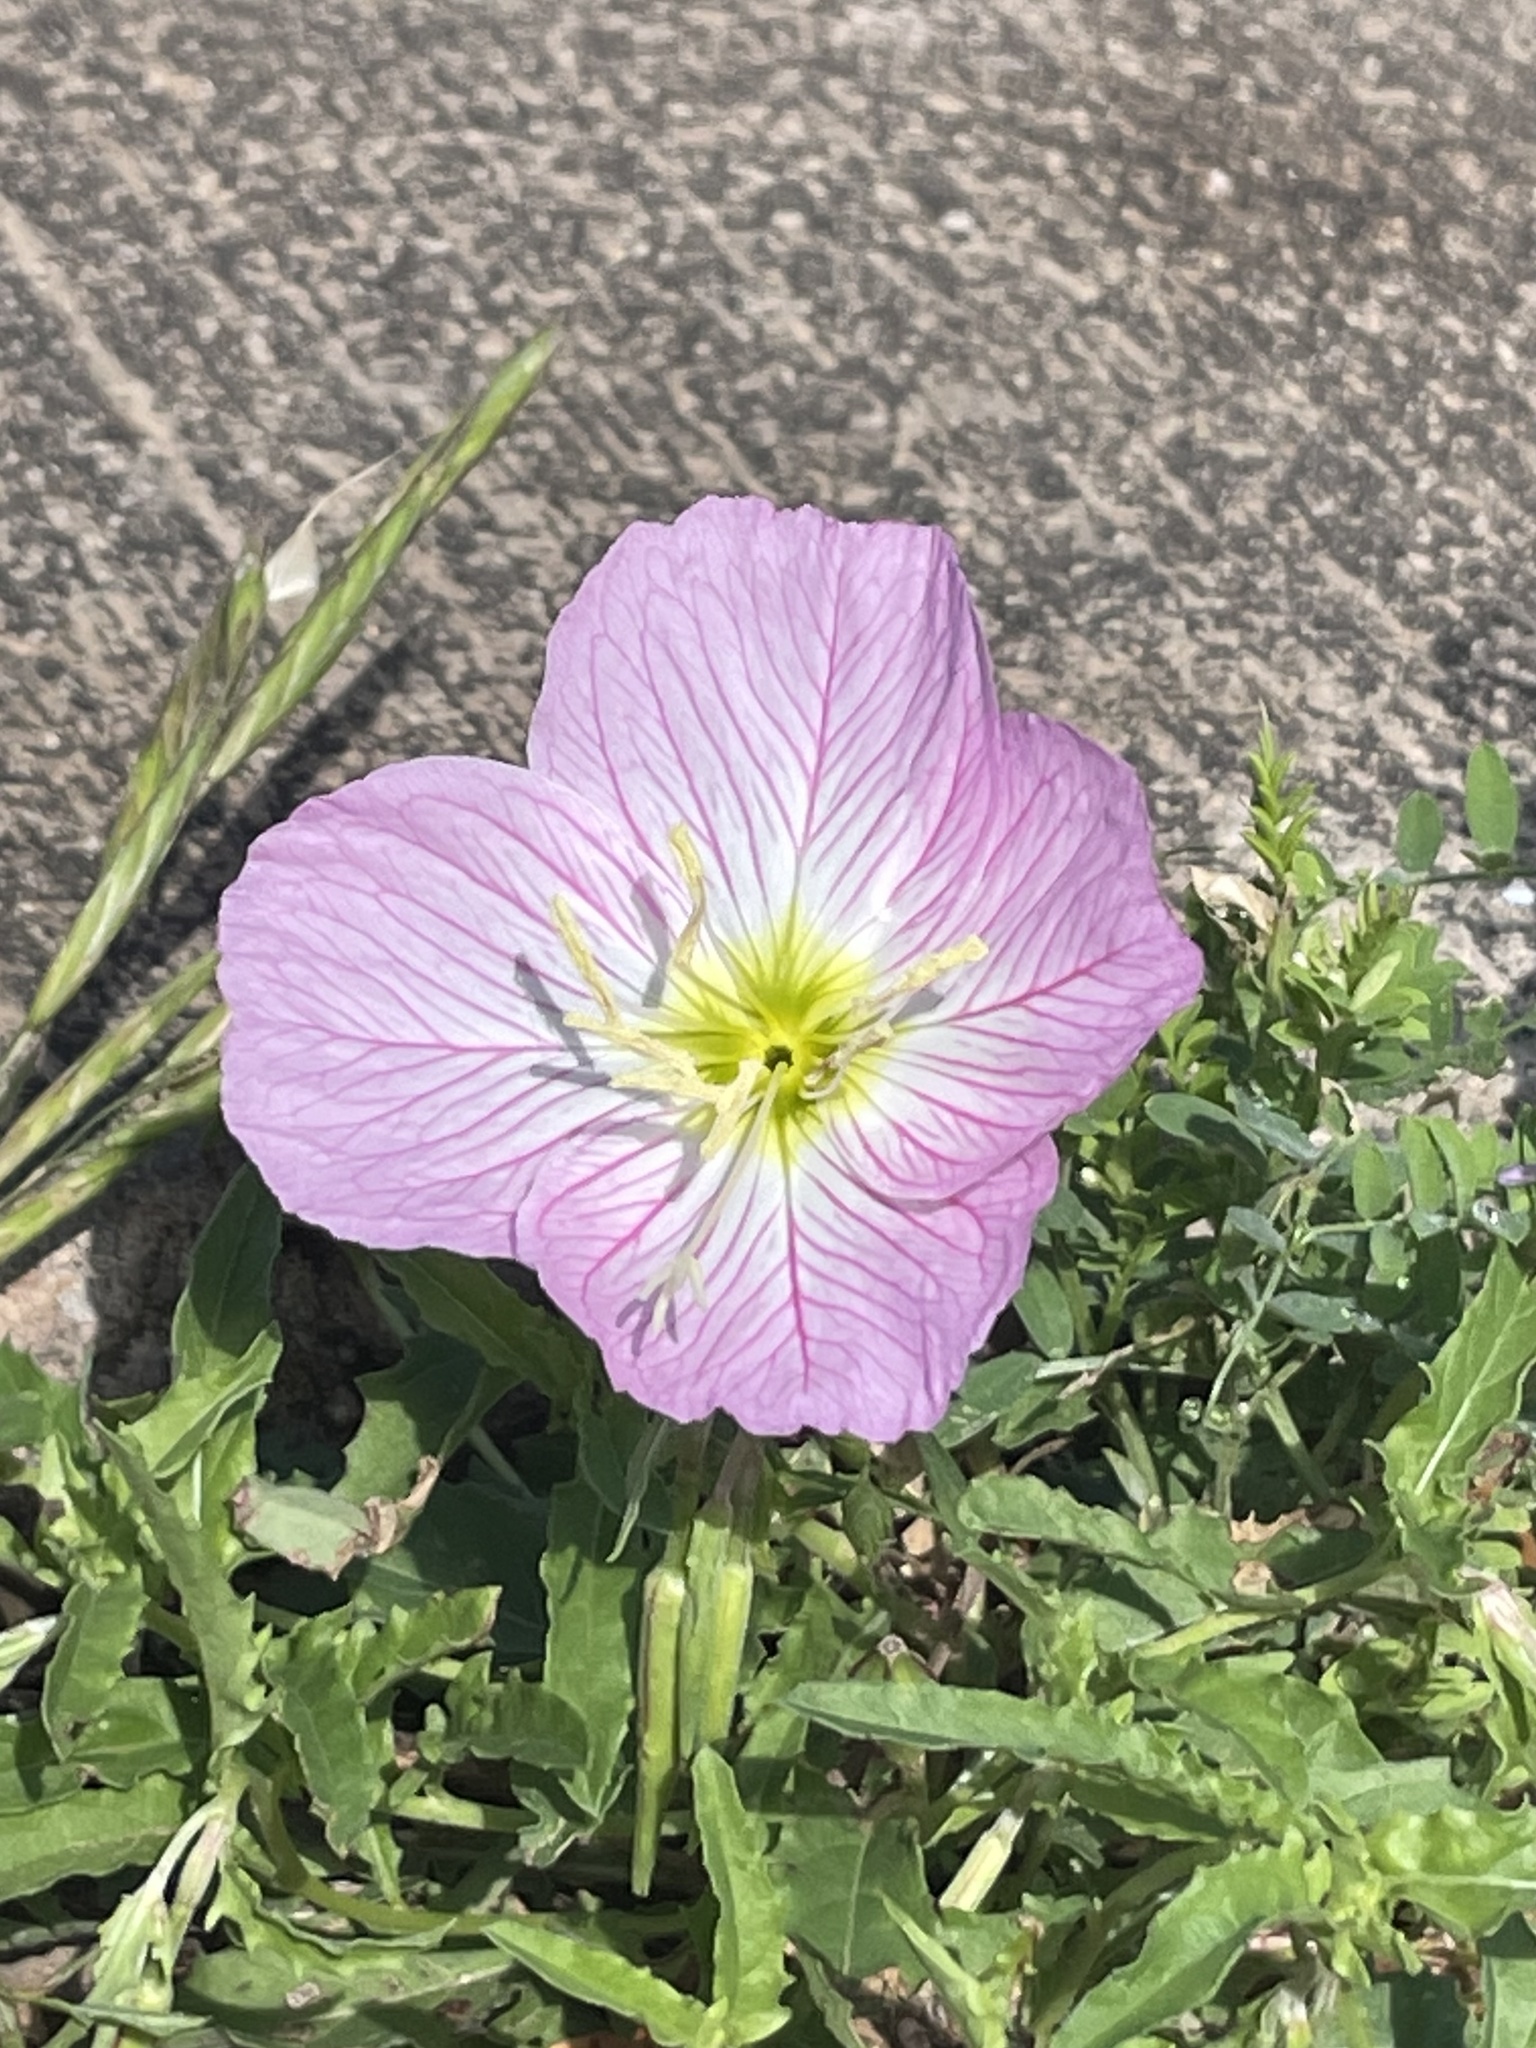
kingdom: Plantae
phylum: Tracheophyta
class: Magnoliopsida
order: Myrtales
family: Onagraceae
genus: Oenothera
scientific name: Oenothera speciosa
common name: White evening-primrose
